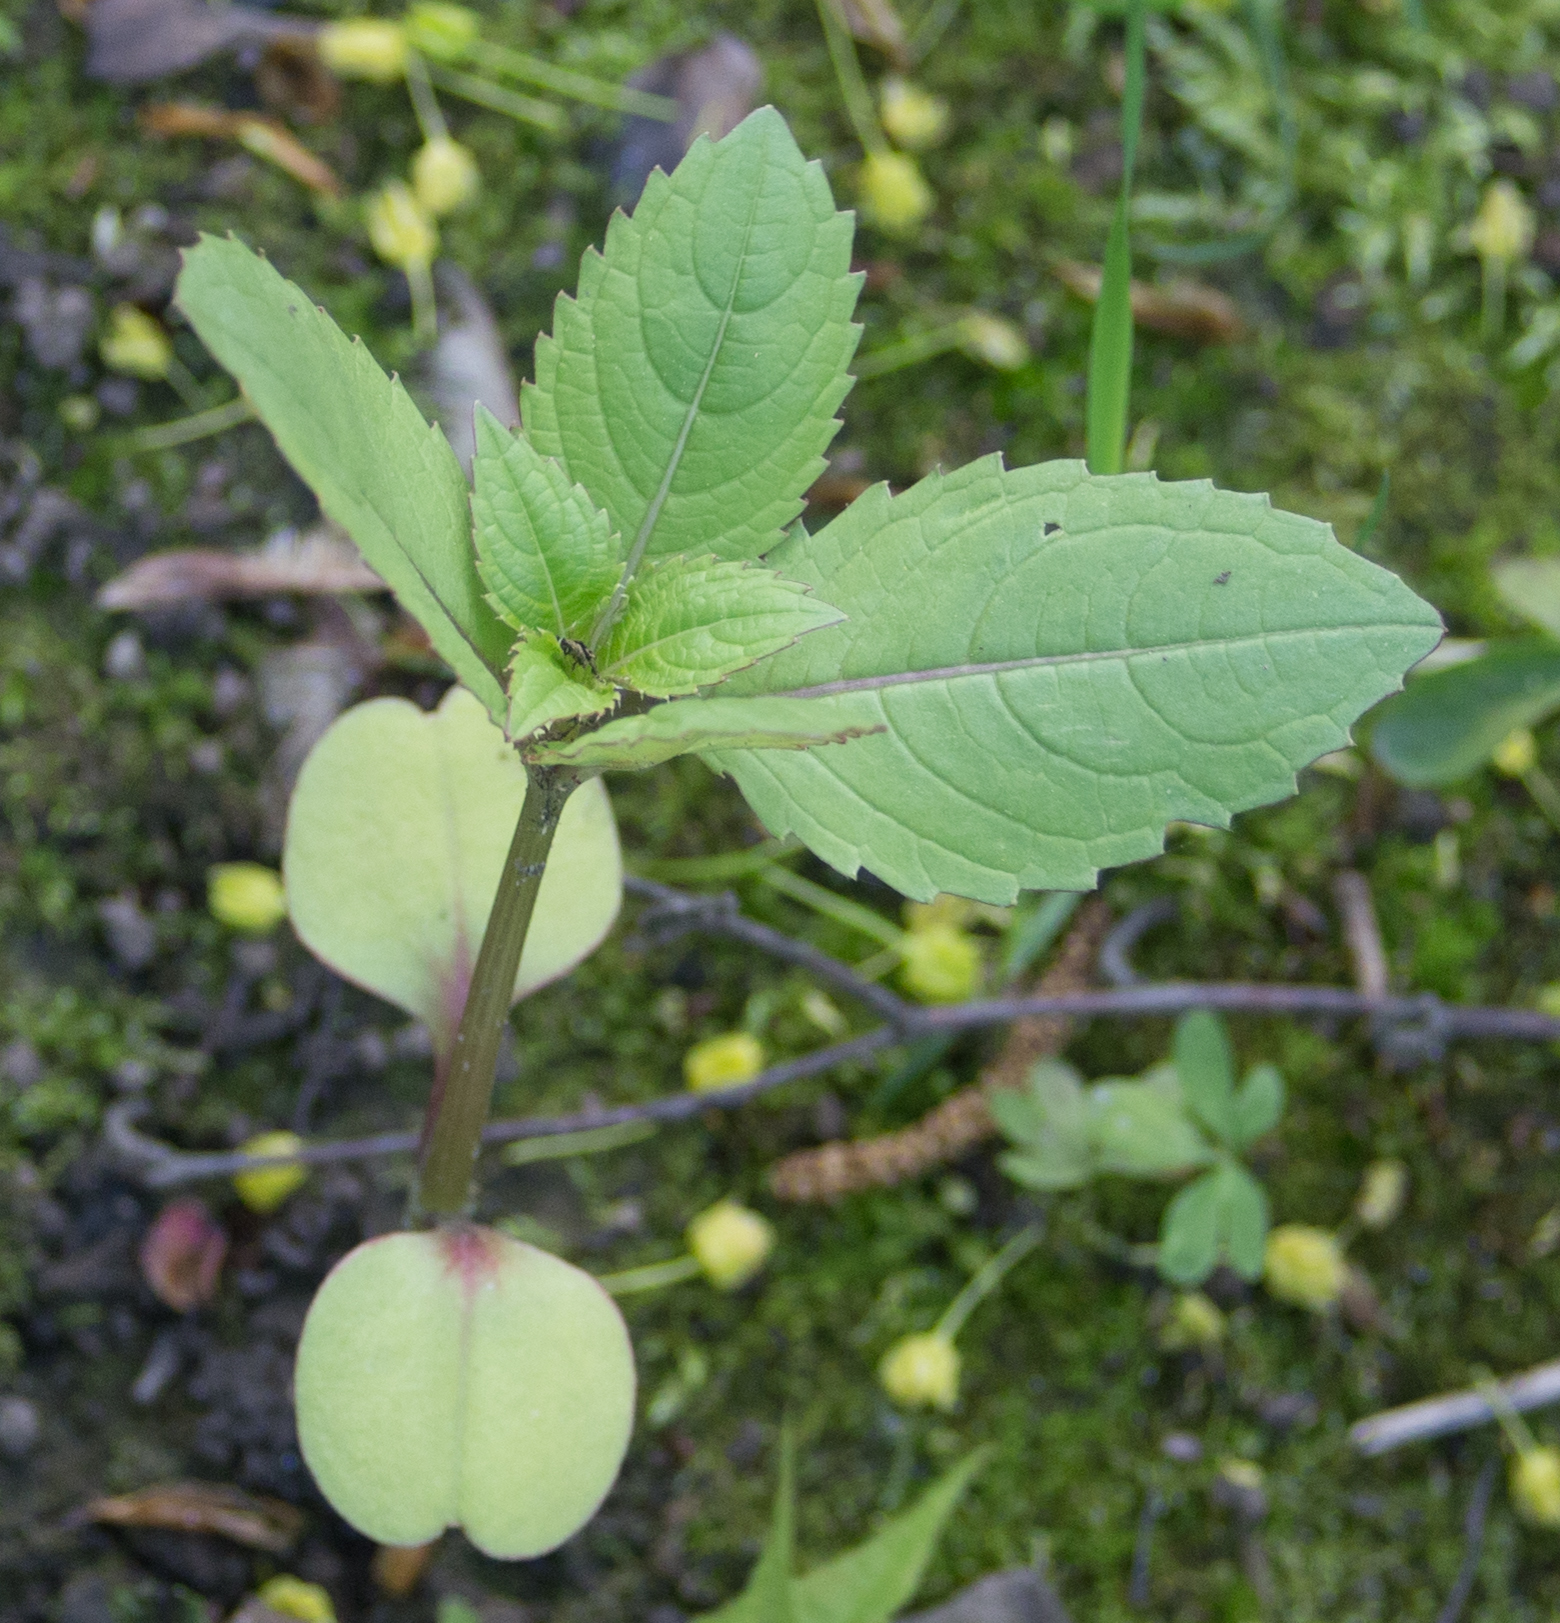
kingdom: Plantae
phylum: Tracheophyta
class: Magnoliopsida
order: Ericales
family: Balsaminaceae
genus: Impatiens
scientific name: Impatiens glandulifera
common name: Himalayan balsam
